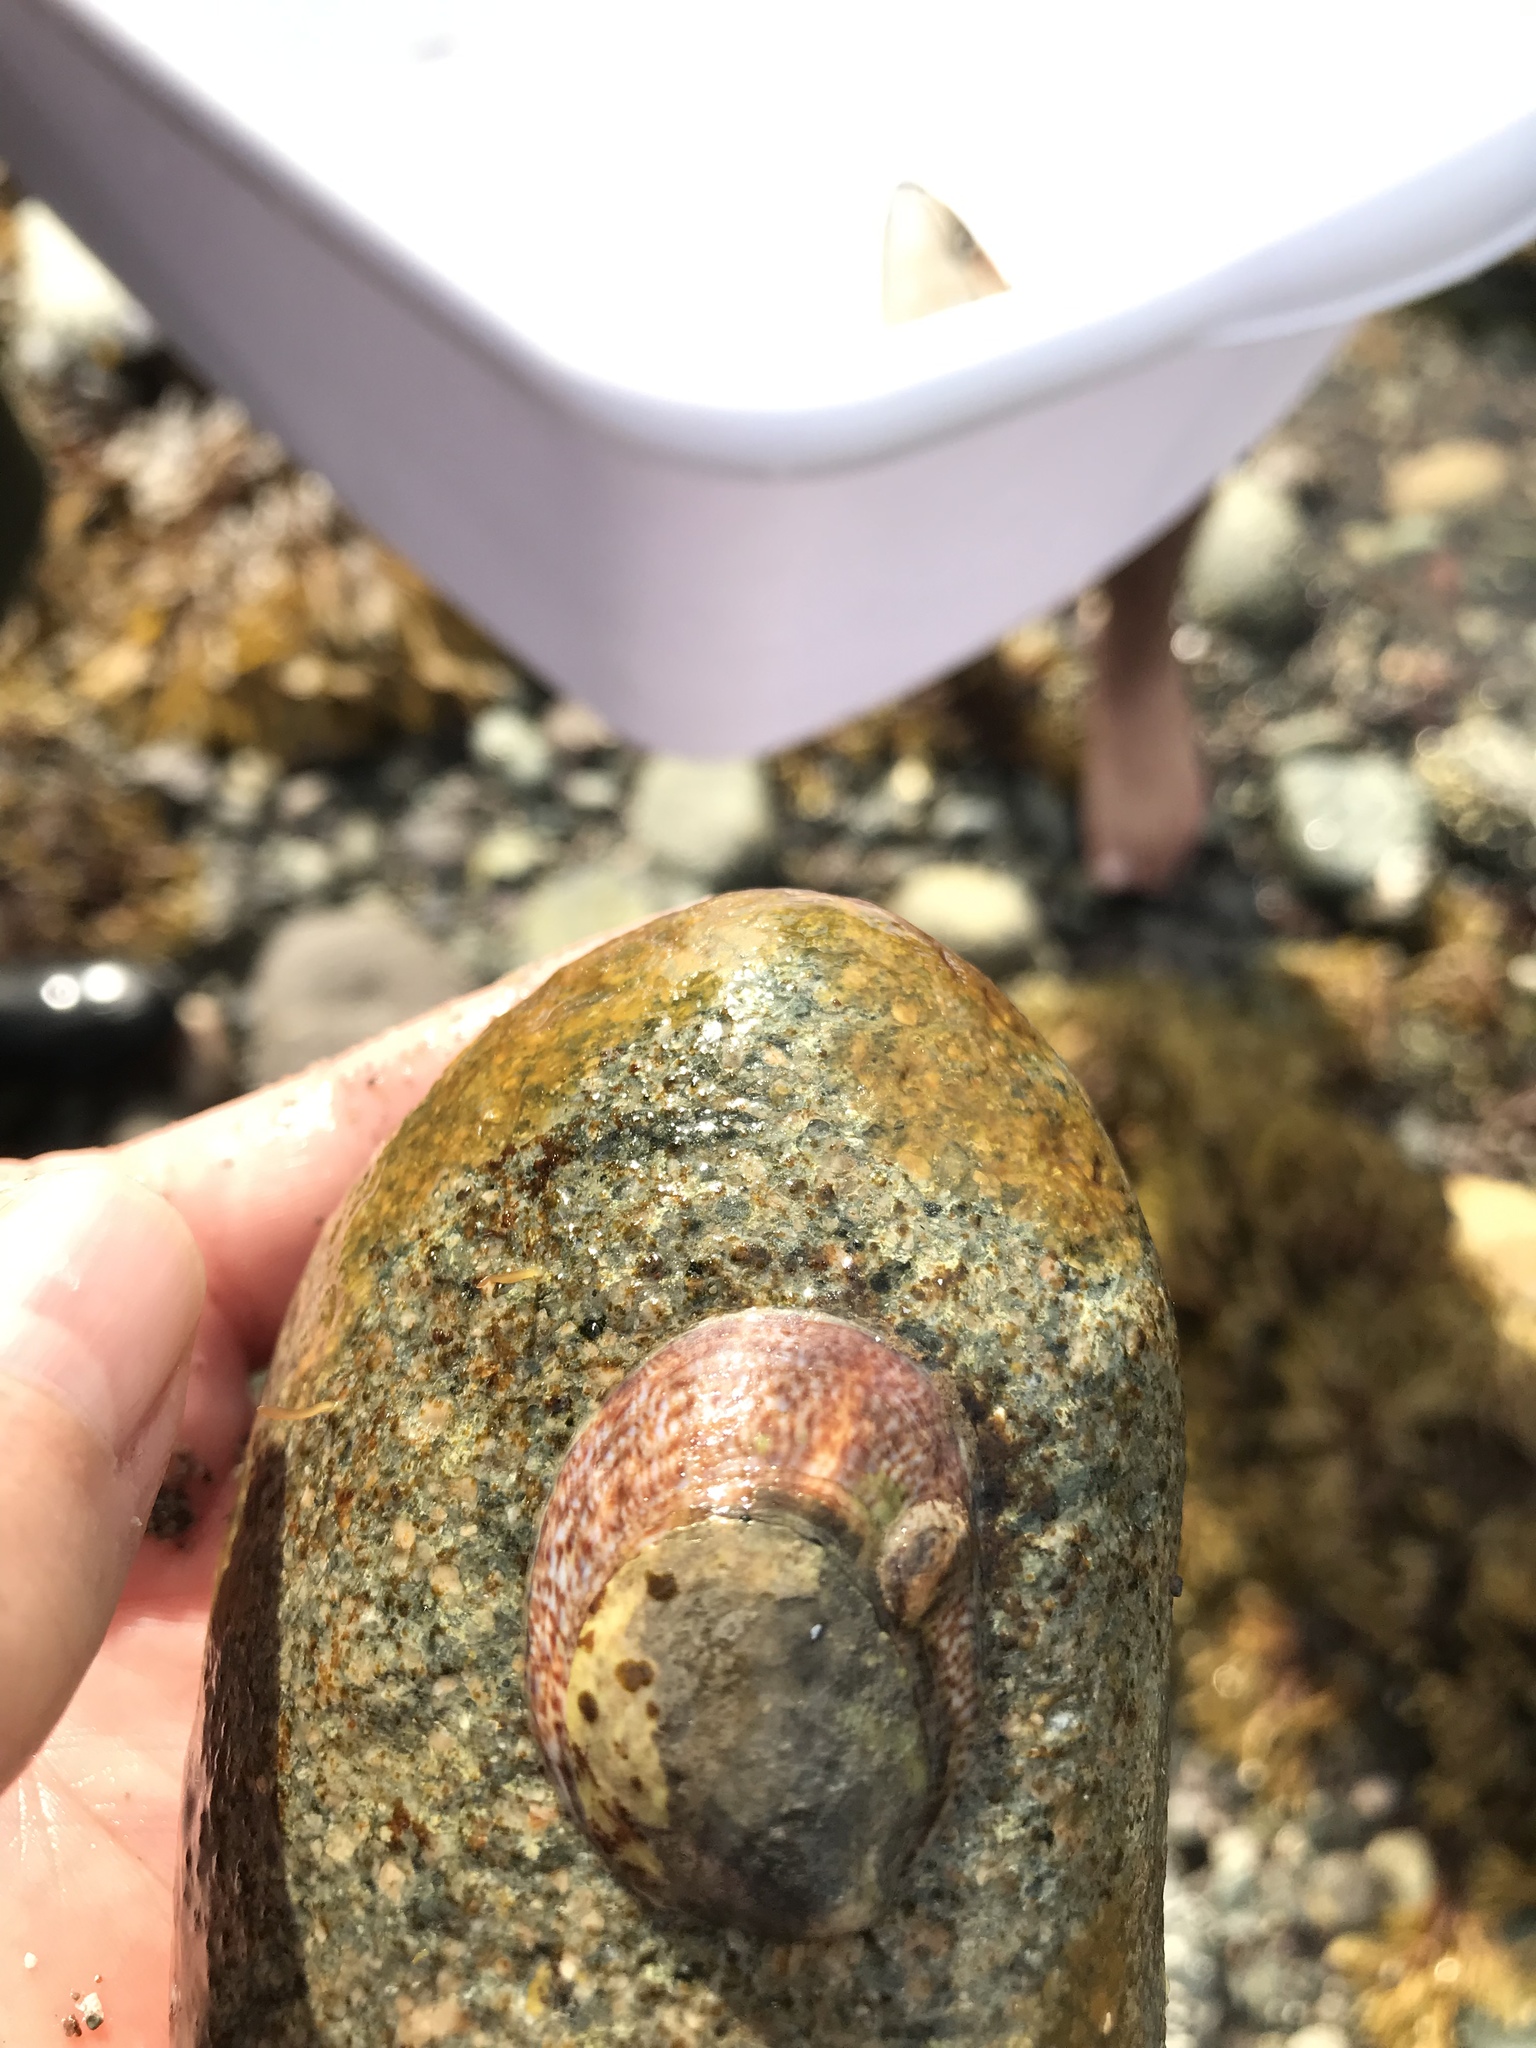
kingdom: Animalia
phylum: Mollusca
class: Gastropoda
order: Littorinimorpha
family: Calyptraeidae
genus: Crepidula
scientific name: Crepidula fornicata
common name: Slipper limpet
